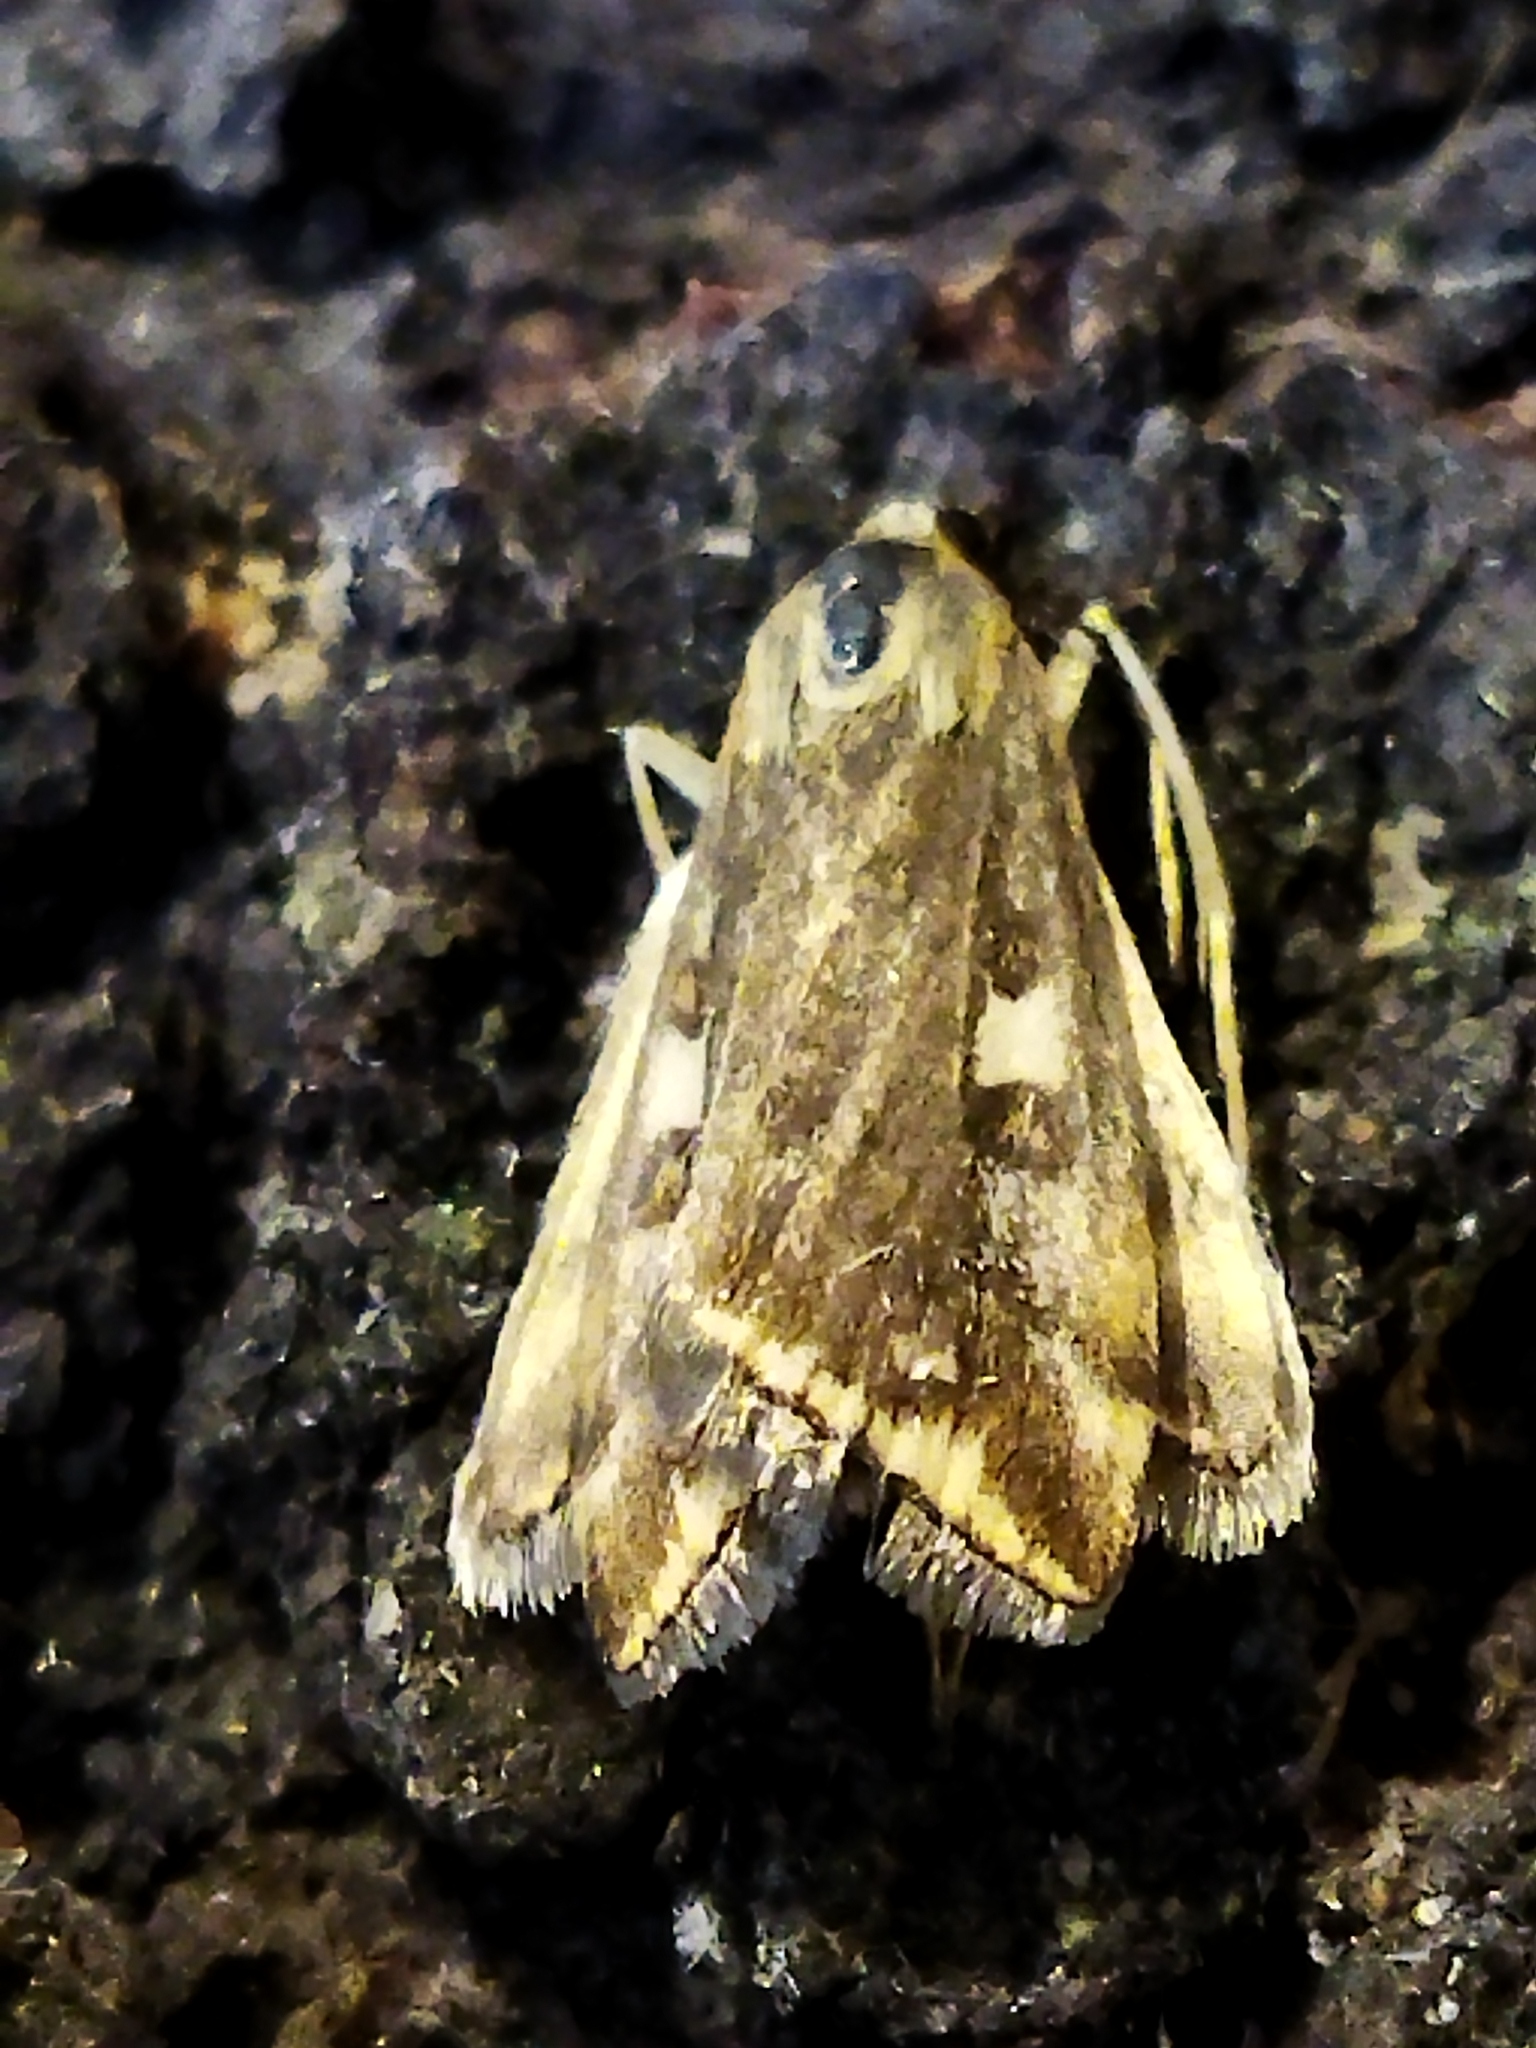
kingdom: Animalia
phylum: Arthropoda
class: Insecta
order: Lepidoptera
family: Crambidae
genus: Loxostege
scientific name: Loxostege sticticalis
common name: Crambid moth
